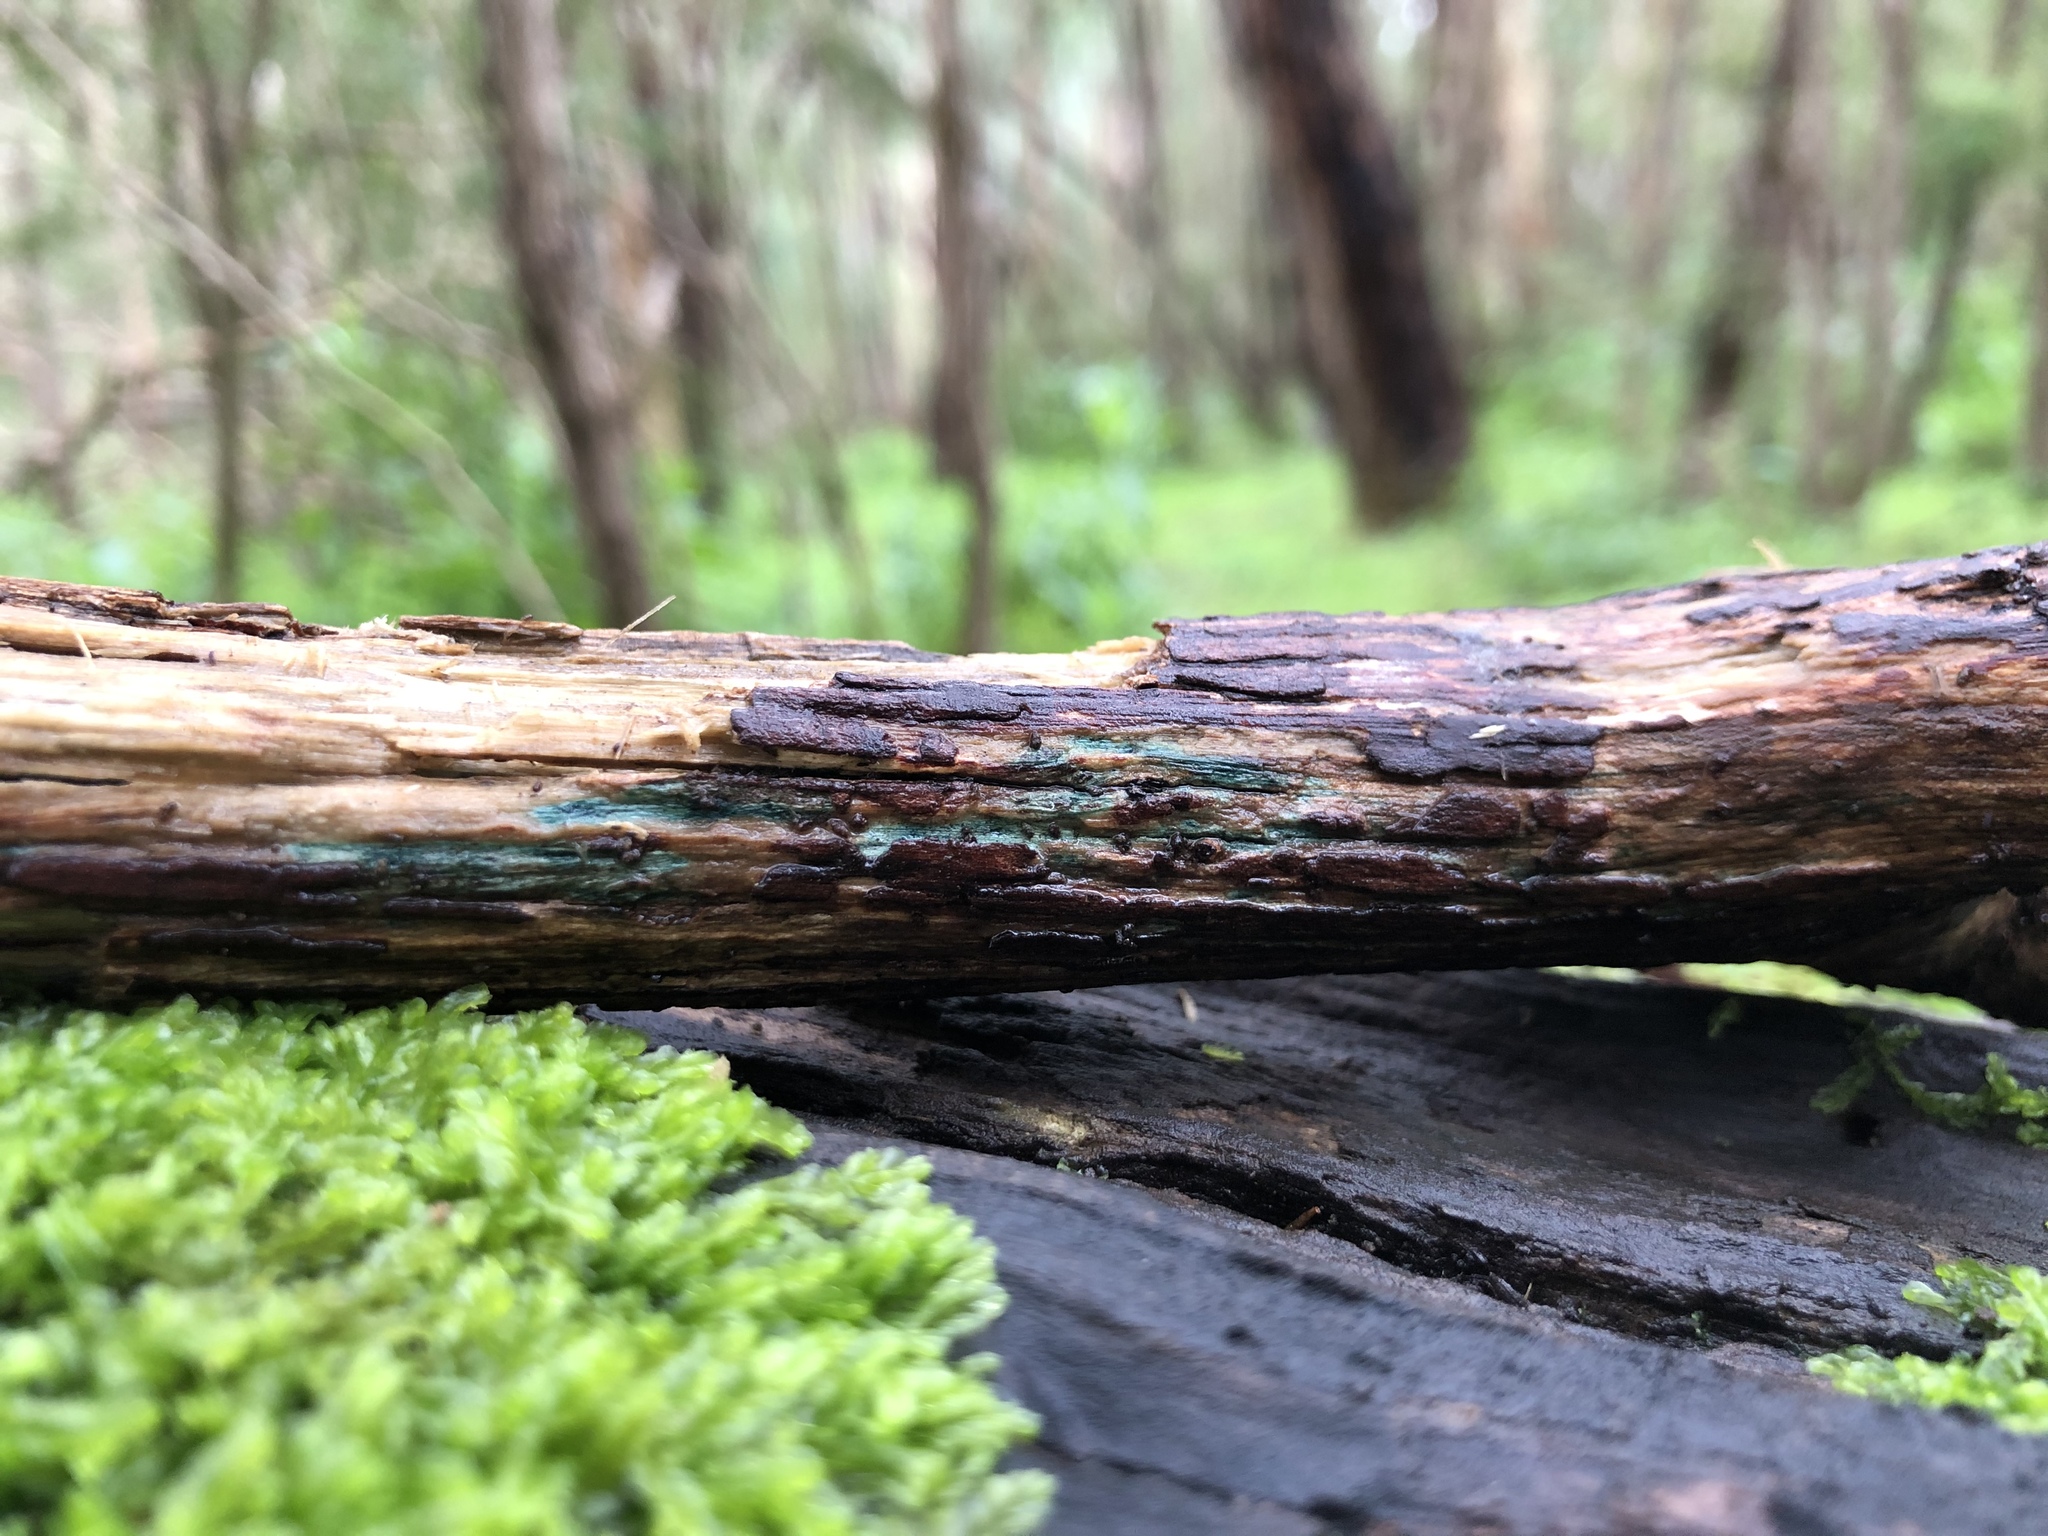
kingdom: Fungi
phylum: Ascomycota
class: Leotiomycetes
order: Helotiales
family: Chlorociboriaceae
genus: Chlorociboria
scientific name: Chlorociboria
